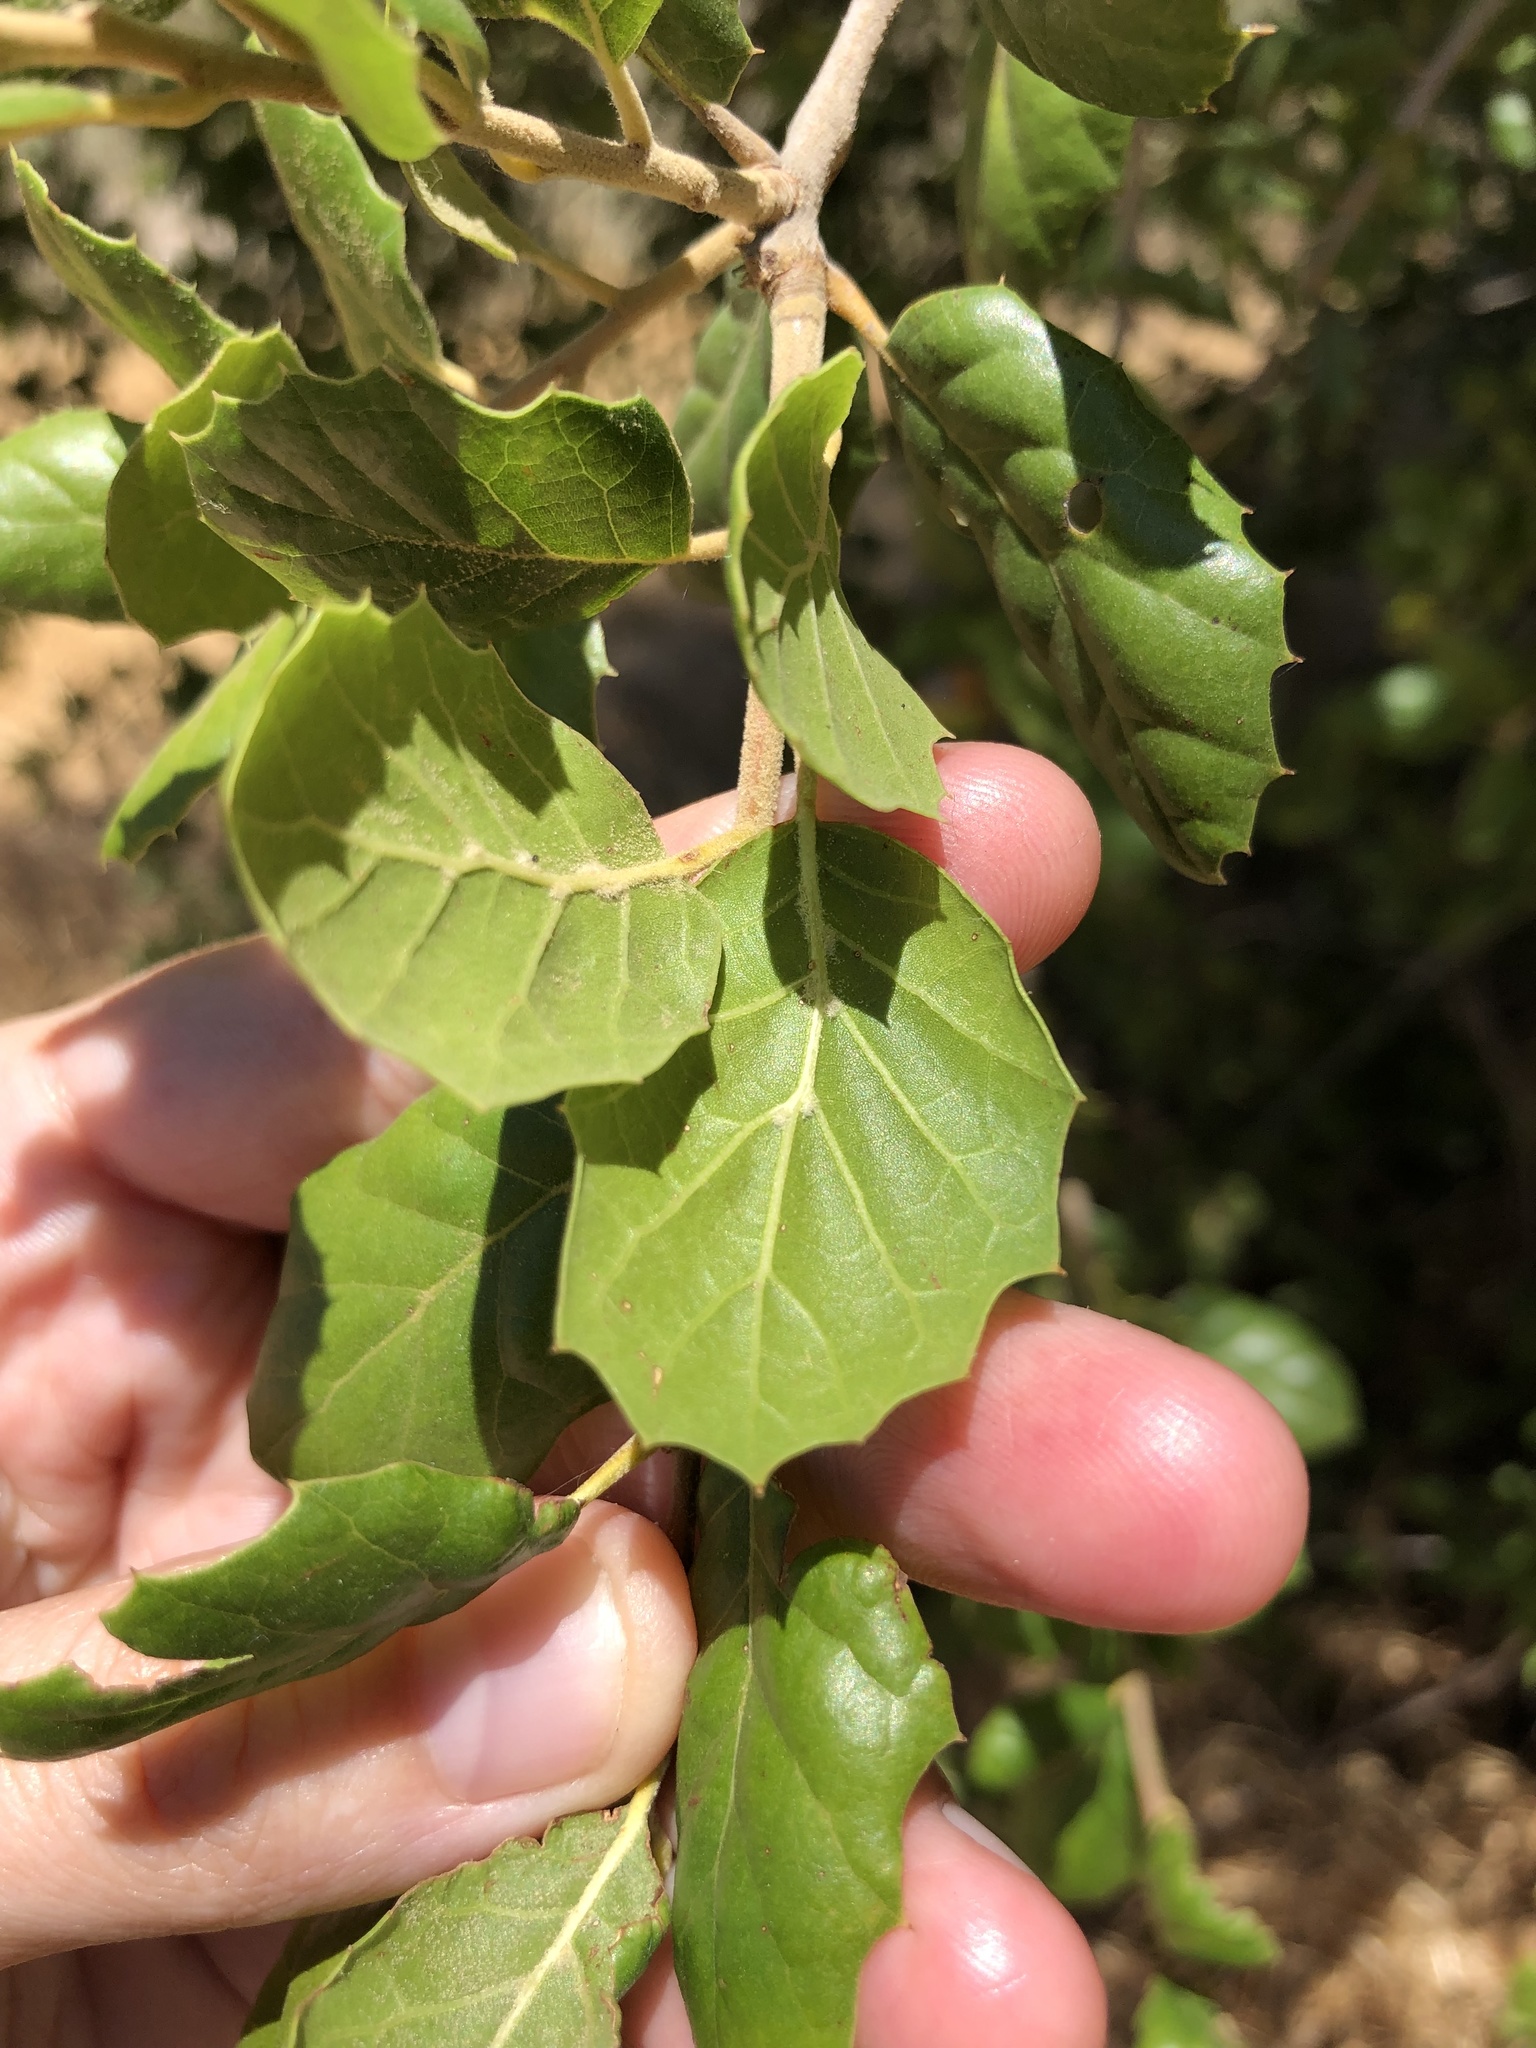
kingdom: Plantae
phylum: Tracheophyta
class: Magnoliopsida
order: Fagales
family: Fagaceae
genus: Quercus
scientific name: Quercus agrifolia
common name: California live oak
